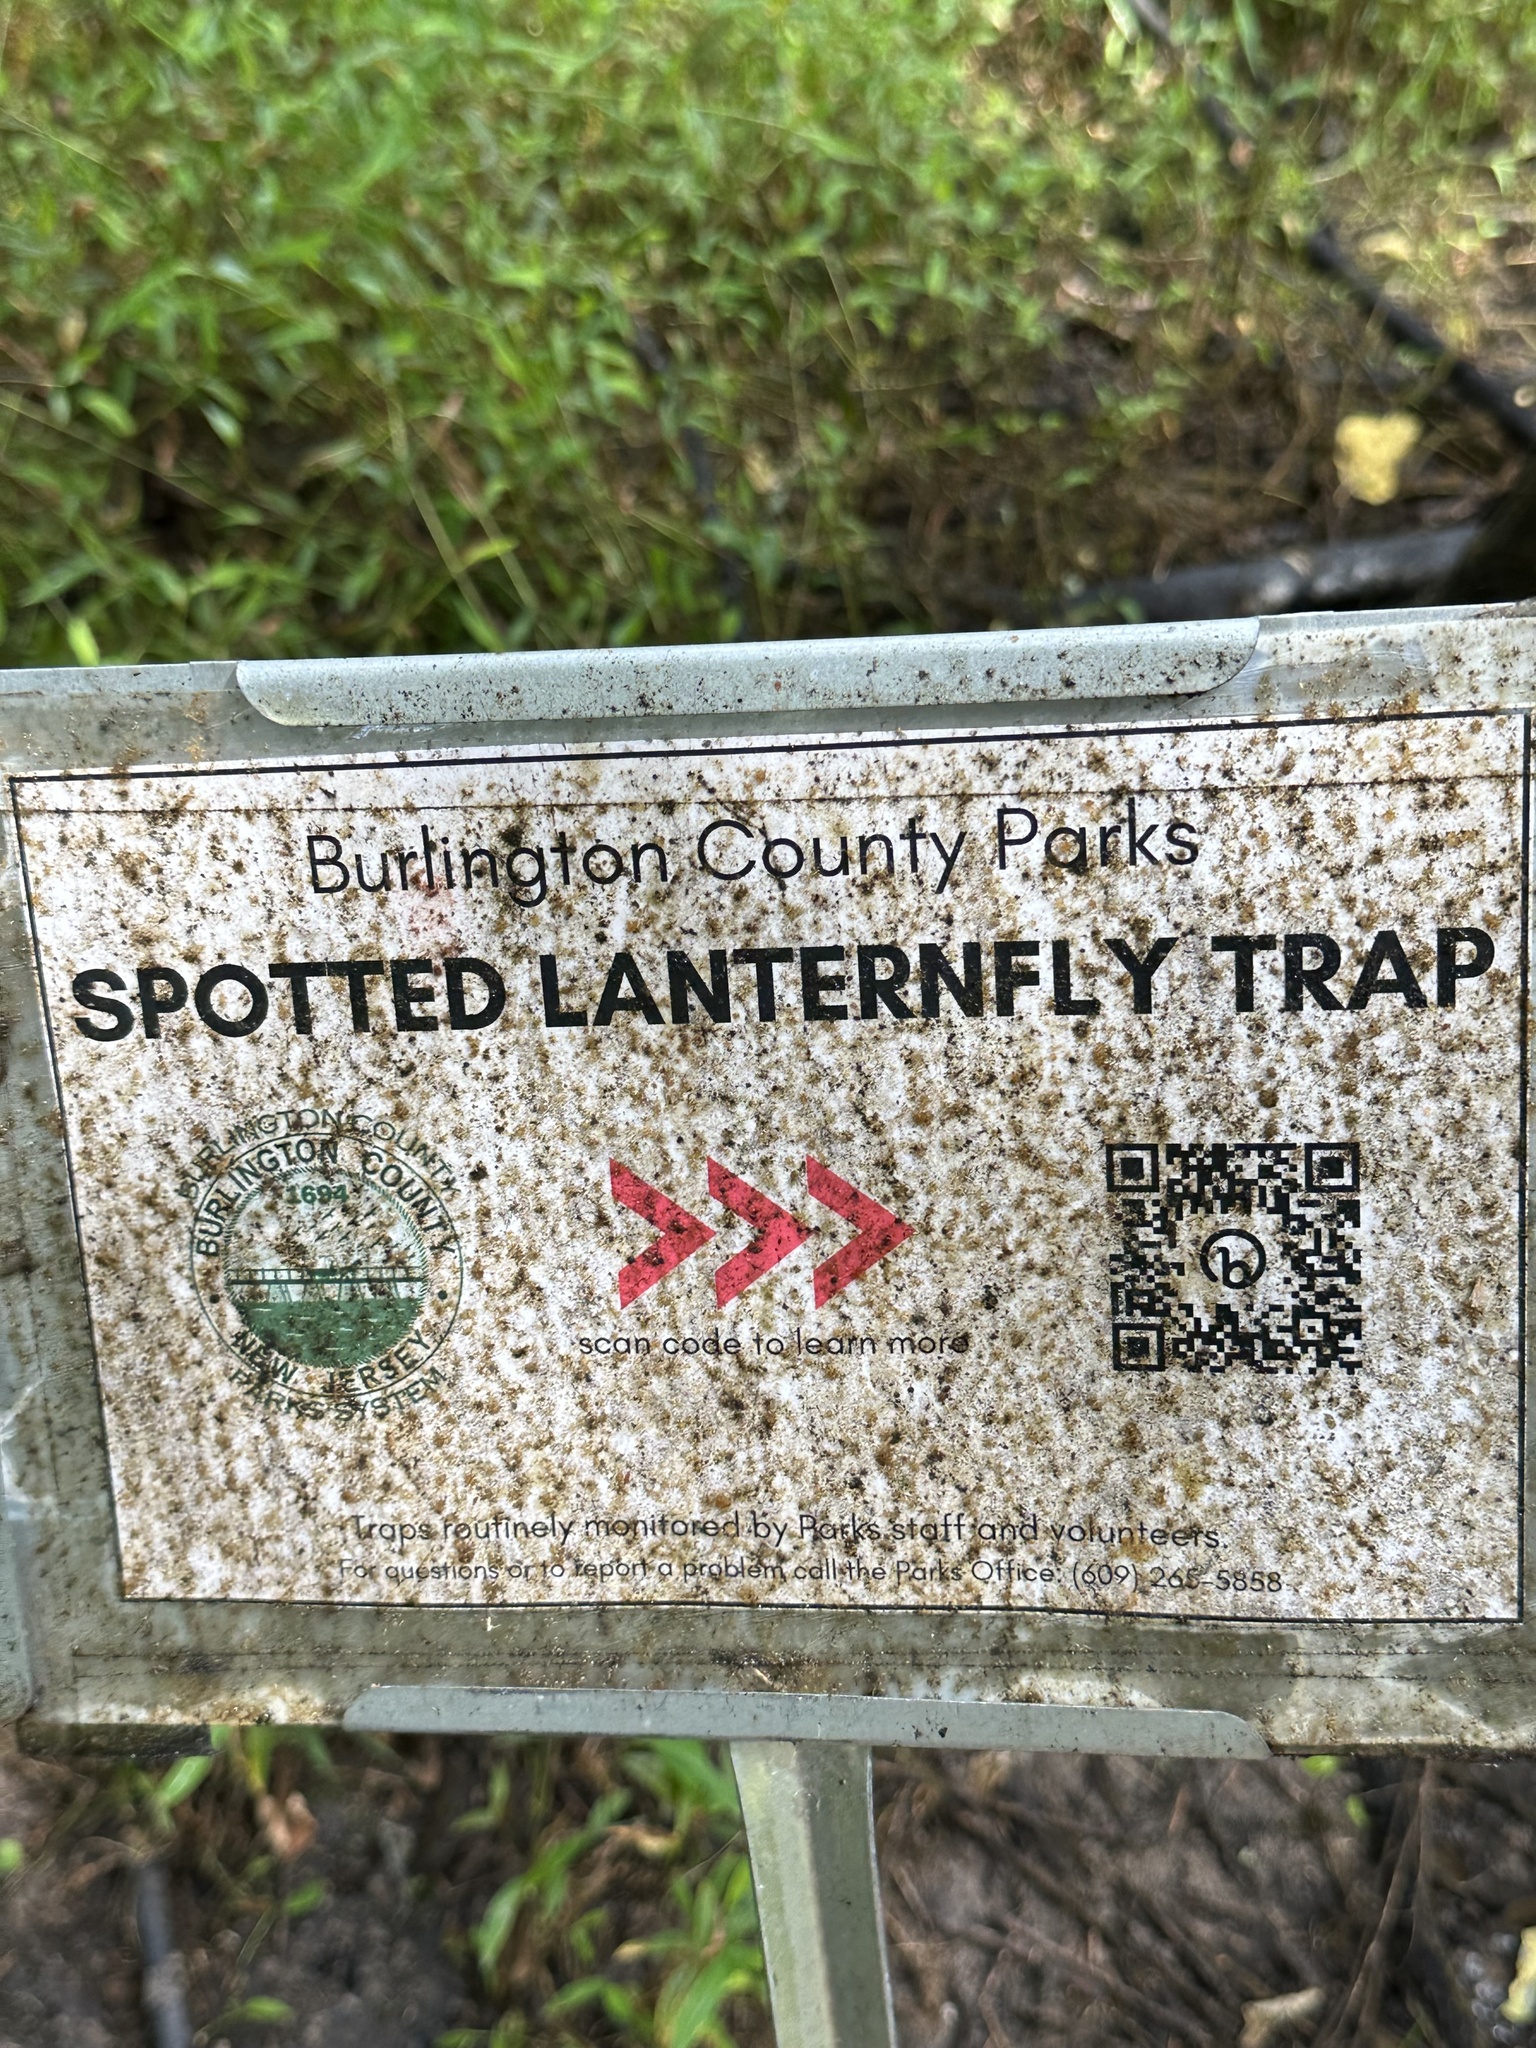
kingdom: Animalia
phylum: Arthropoda
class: Insecta
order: Hemiptera
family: Fulgoridae
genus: Lycorma
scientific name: Lycorma delicatula
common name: Spotted lanternfly
